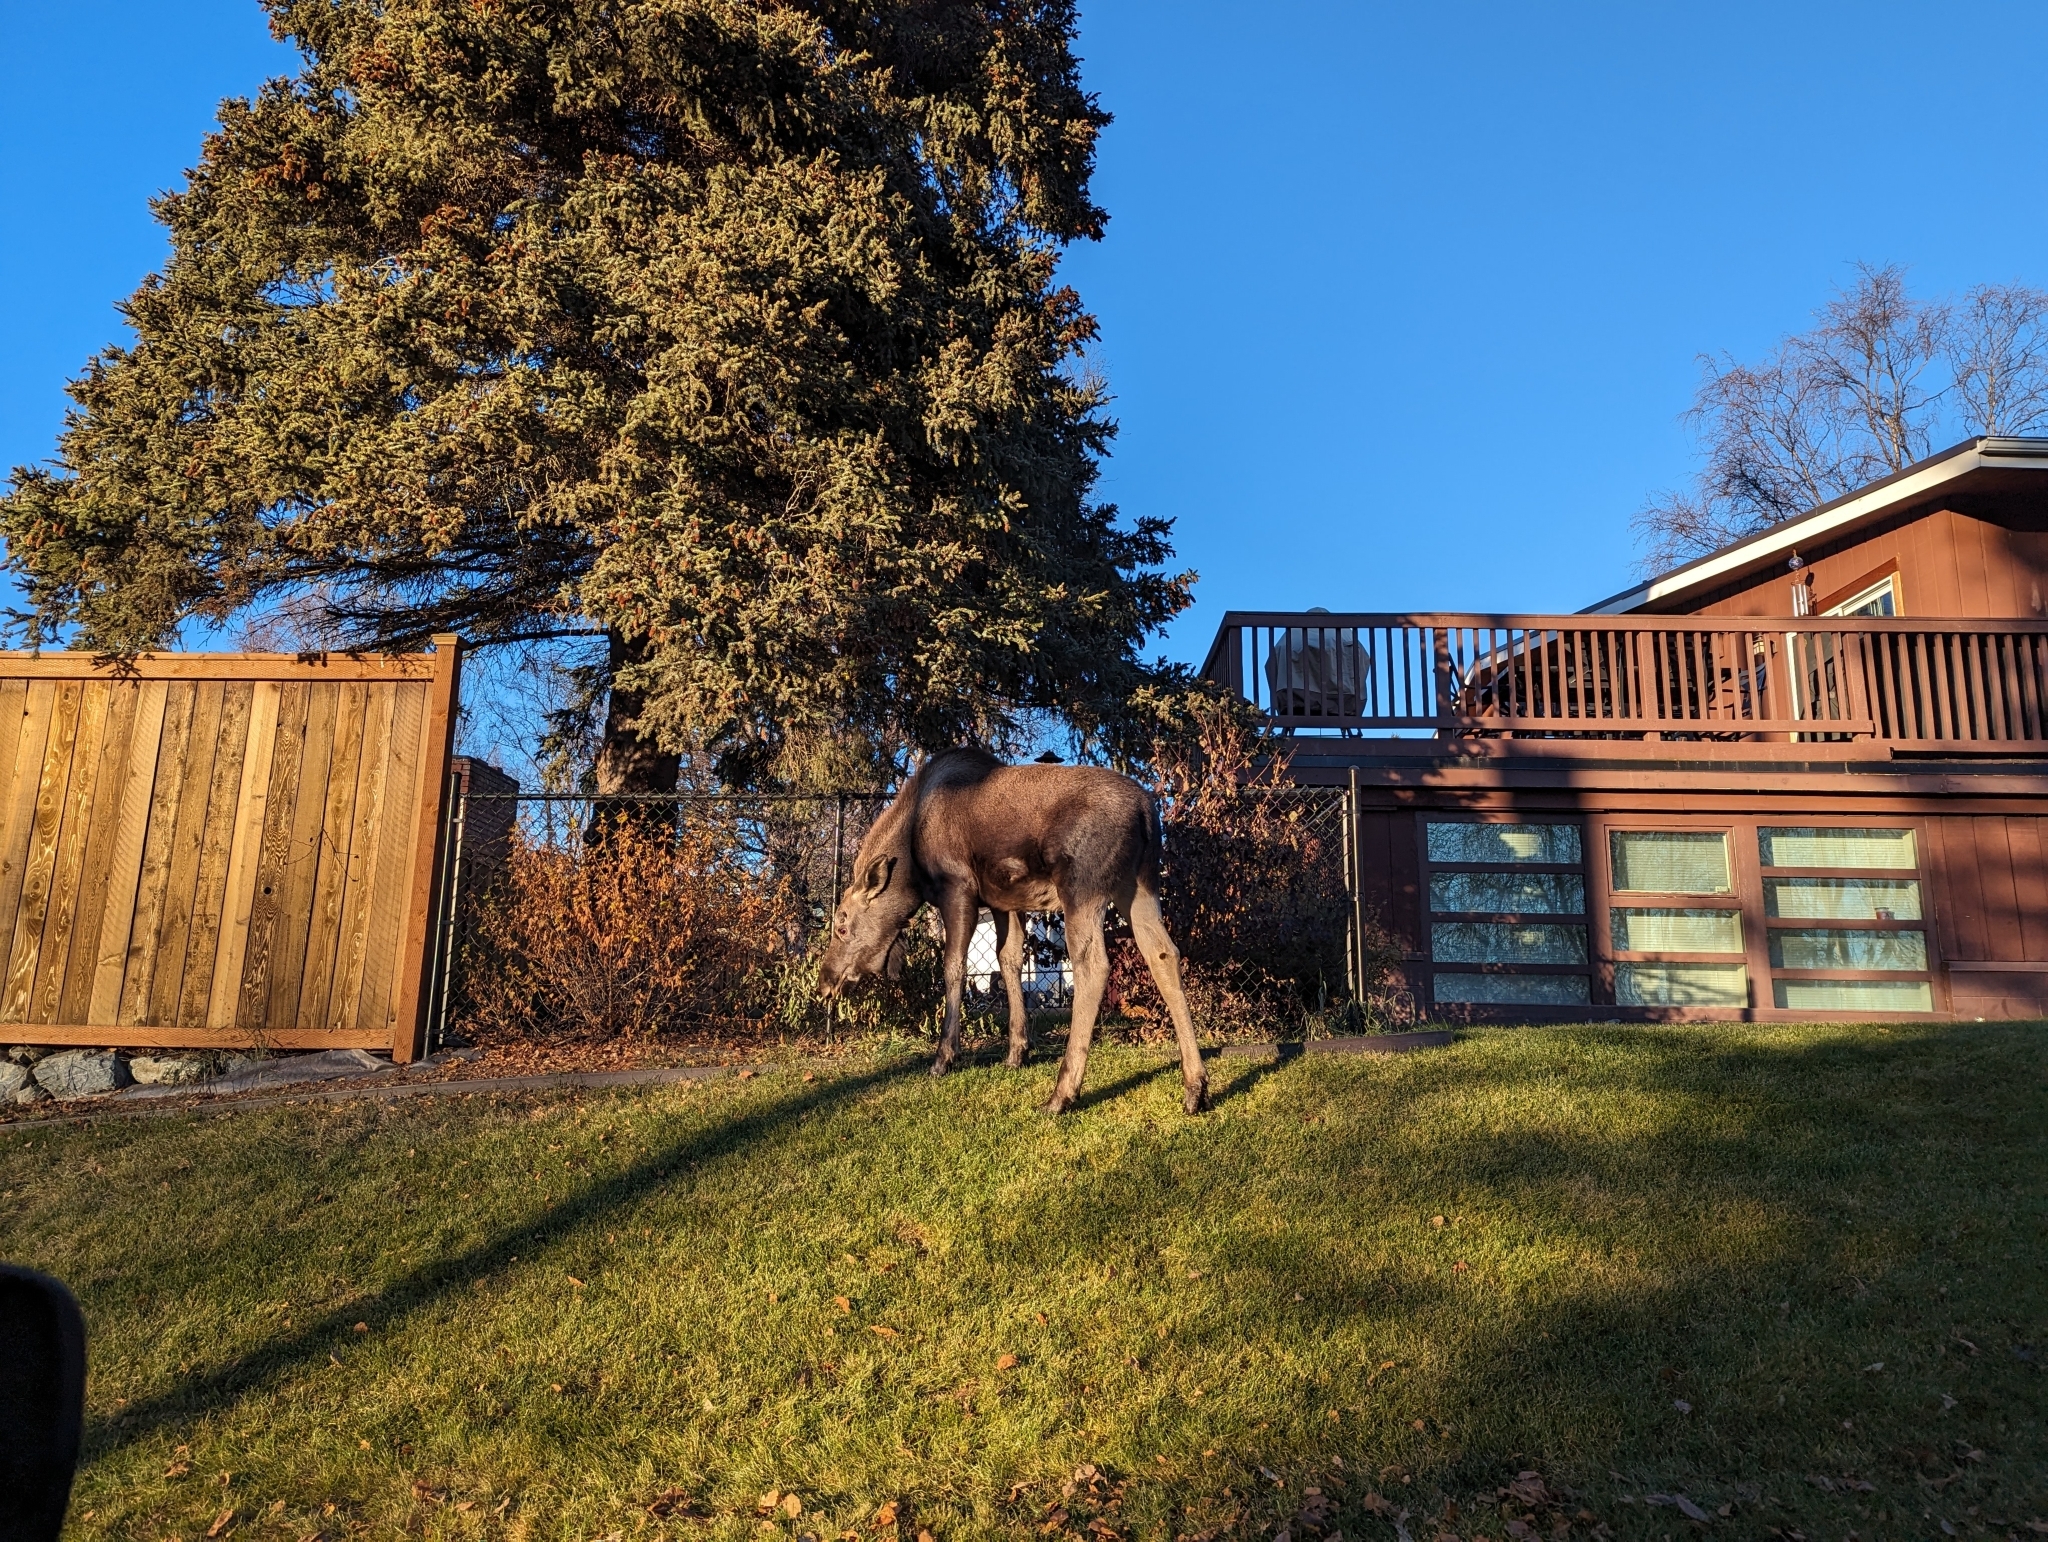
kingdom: Animalia
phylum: Chordata
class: Mammalia
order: Artiodactyla
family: Cervidae
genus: Alces
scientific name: Alces alces
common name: Moose
